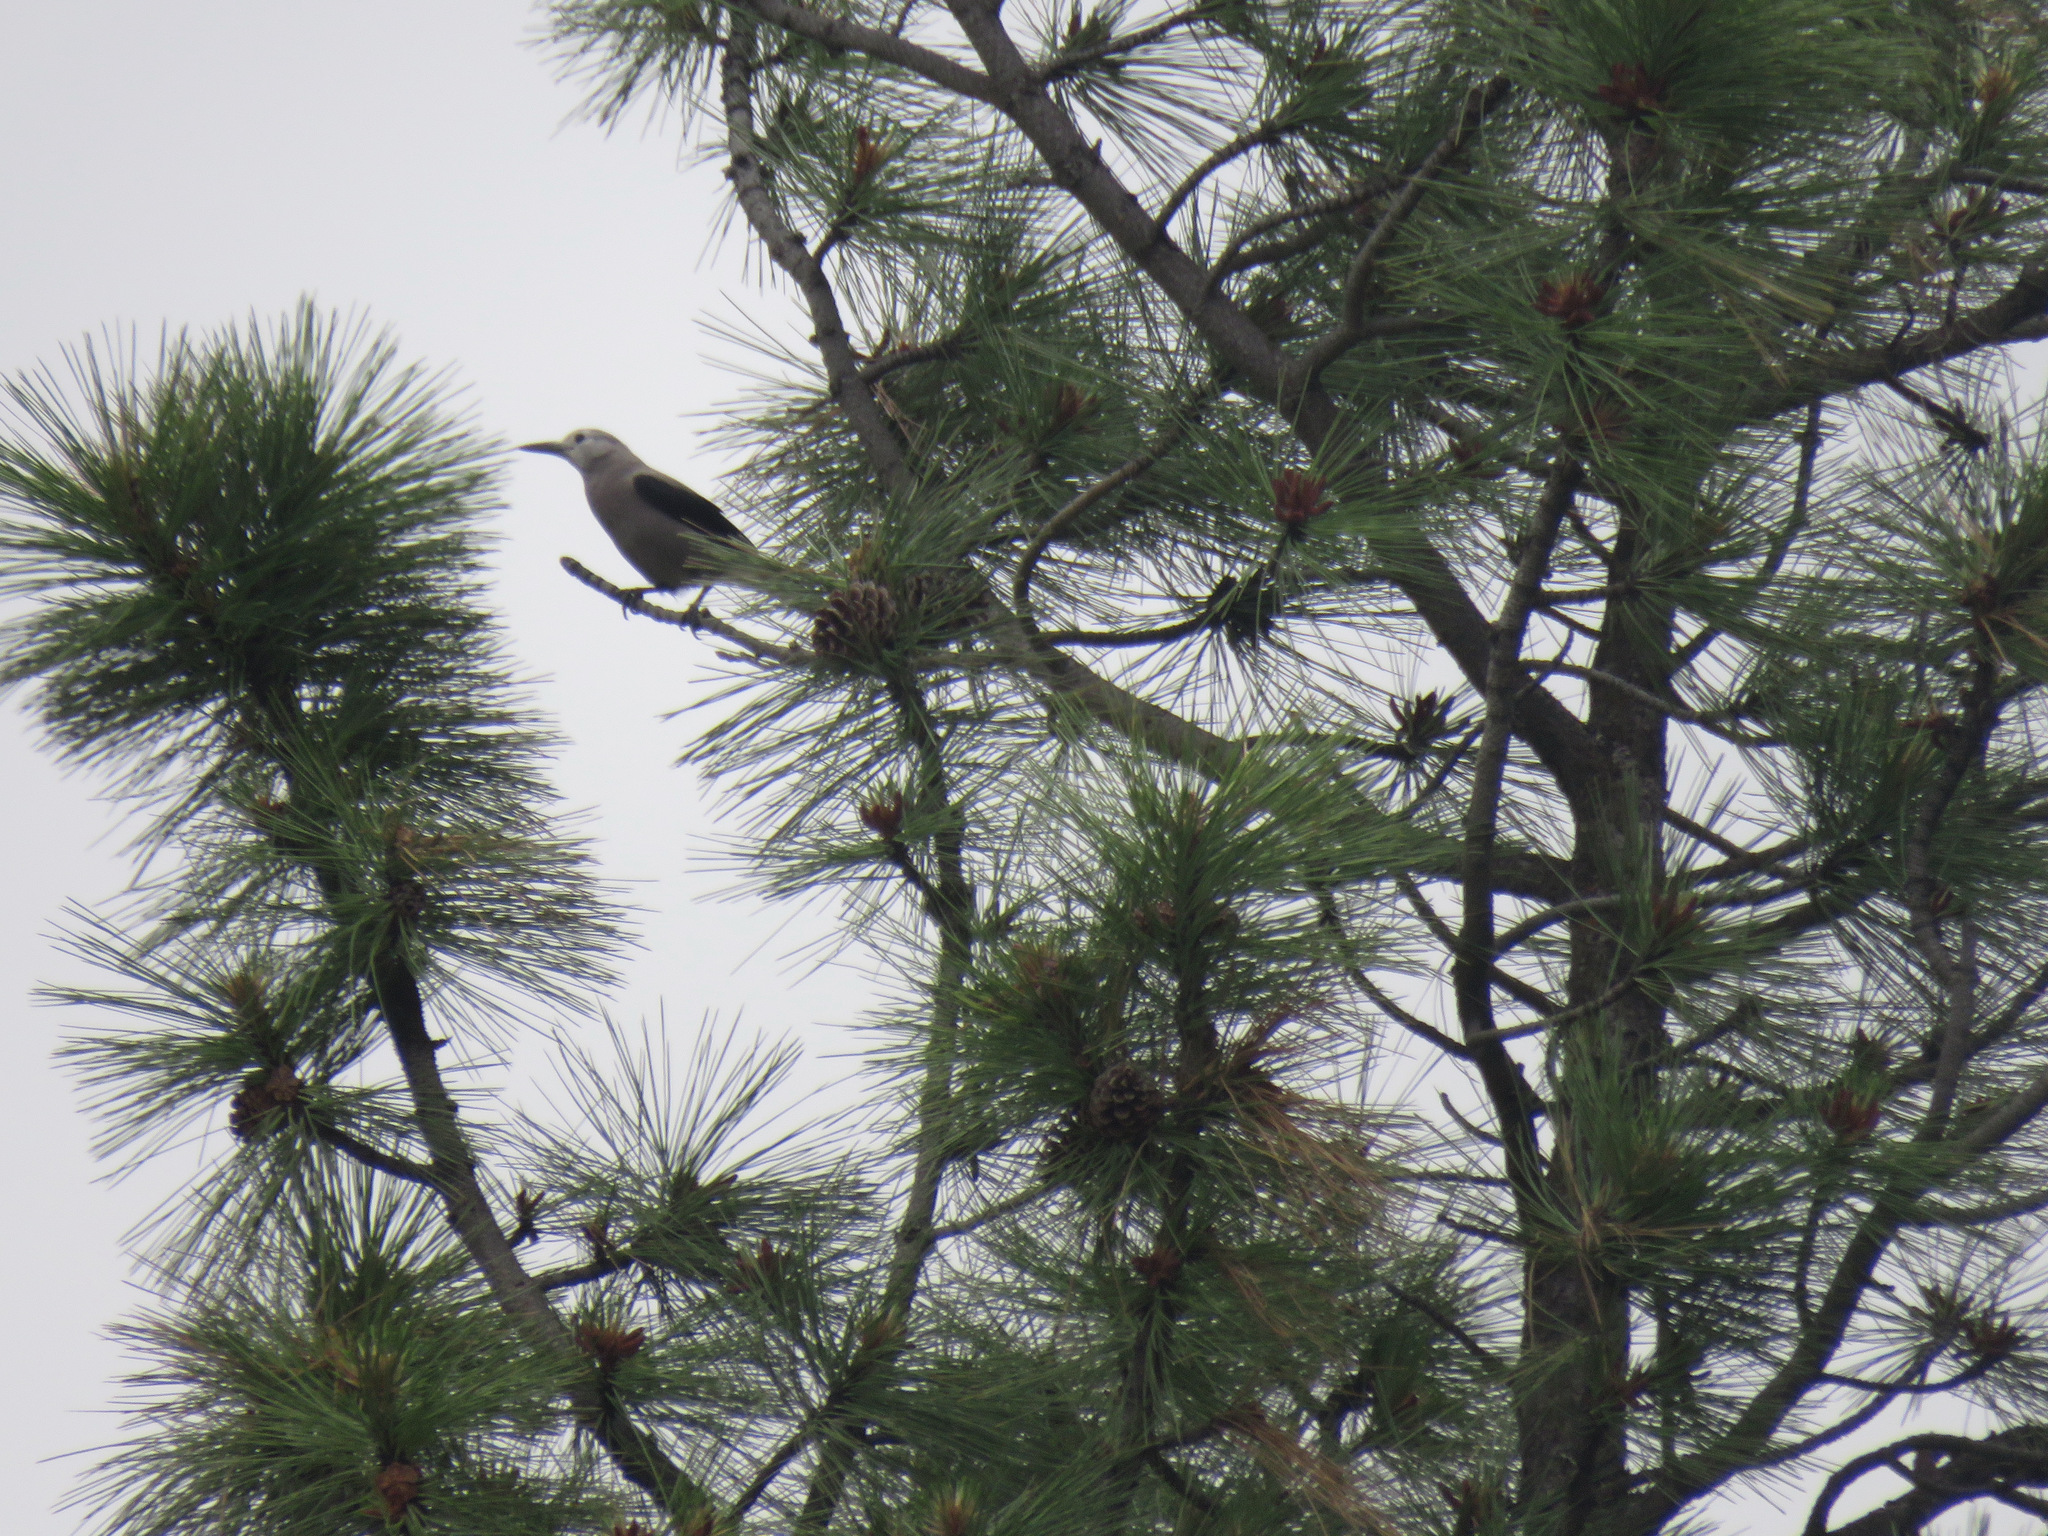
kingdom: Animalia
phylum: Chordata
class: Aves
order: Passeriformes
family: Corvidae
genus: Nucifraga
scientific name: Nucifraga columbiana
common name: Clark's nutcracker
